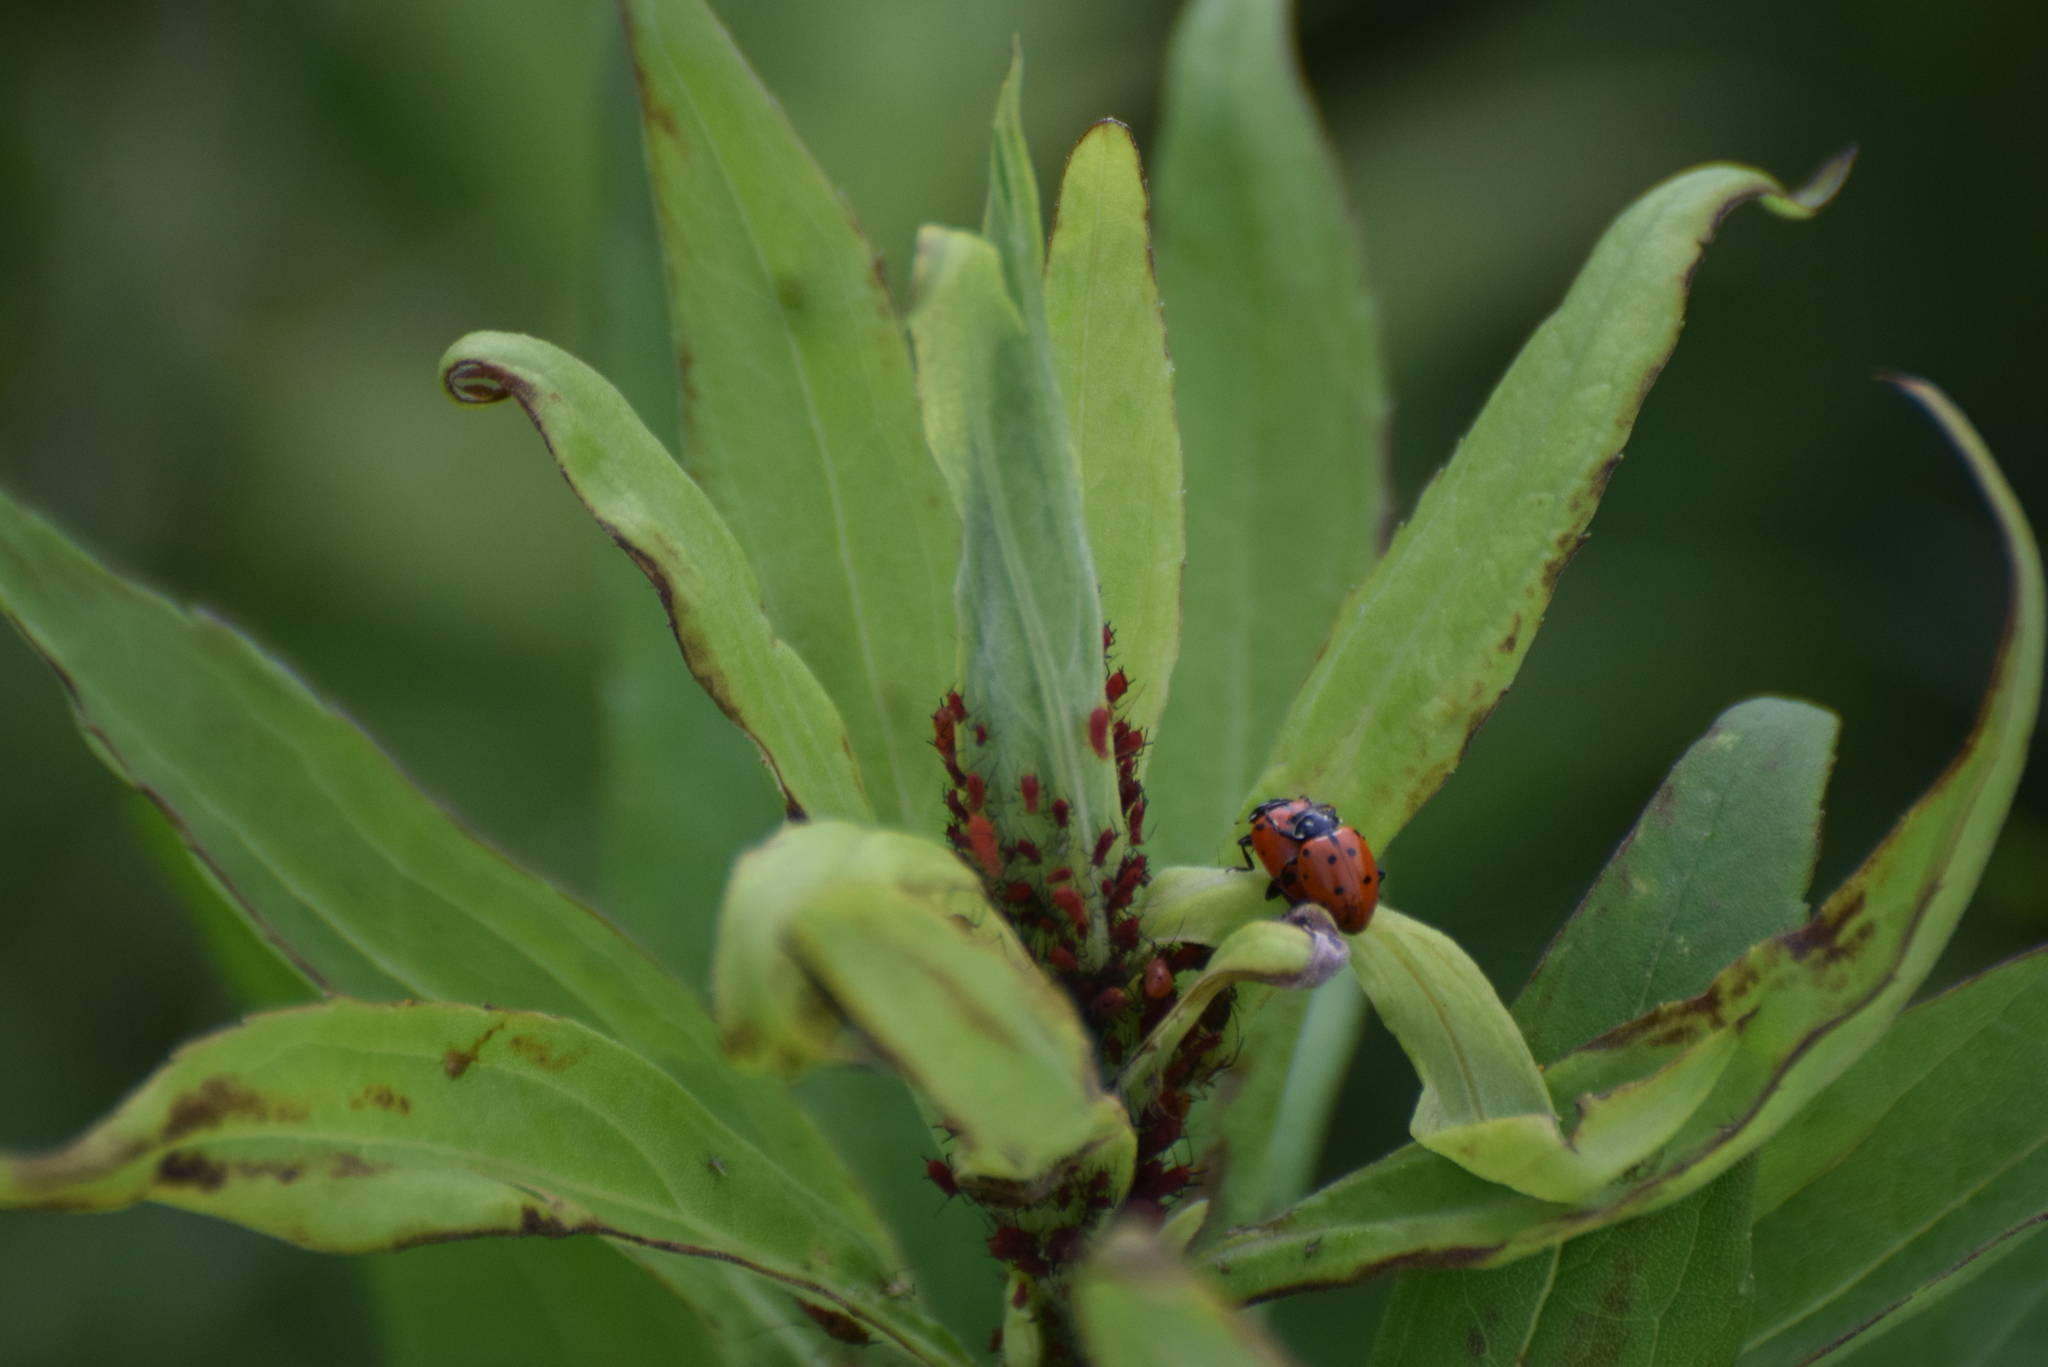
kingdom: Animalia
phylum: Arthropoda
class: Insecta
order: Coleoptera
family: Coccinellidae
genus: Hippodamia
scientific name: Hippodamia convergens
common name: Convergent lady beetle
